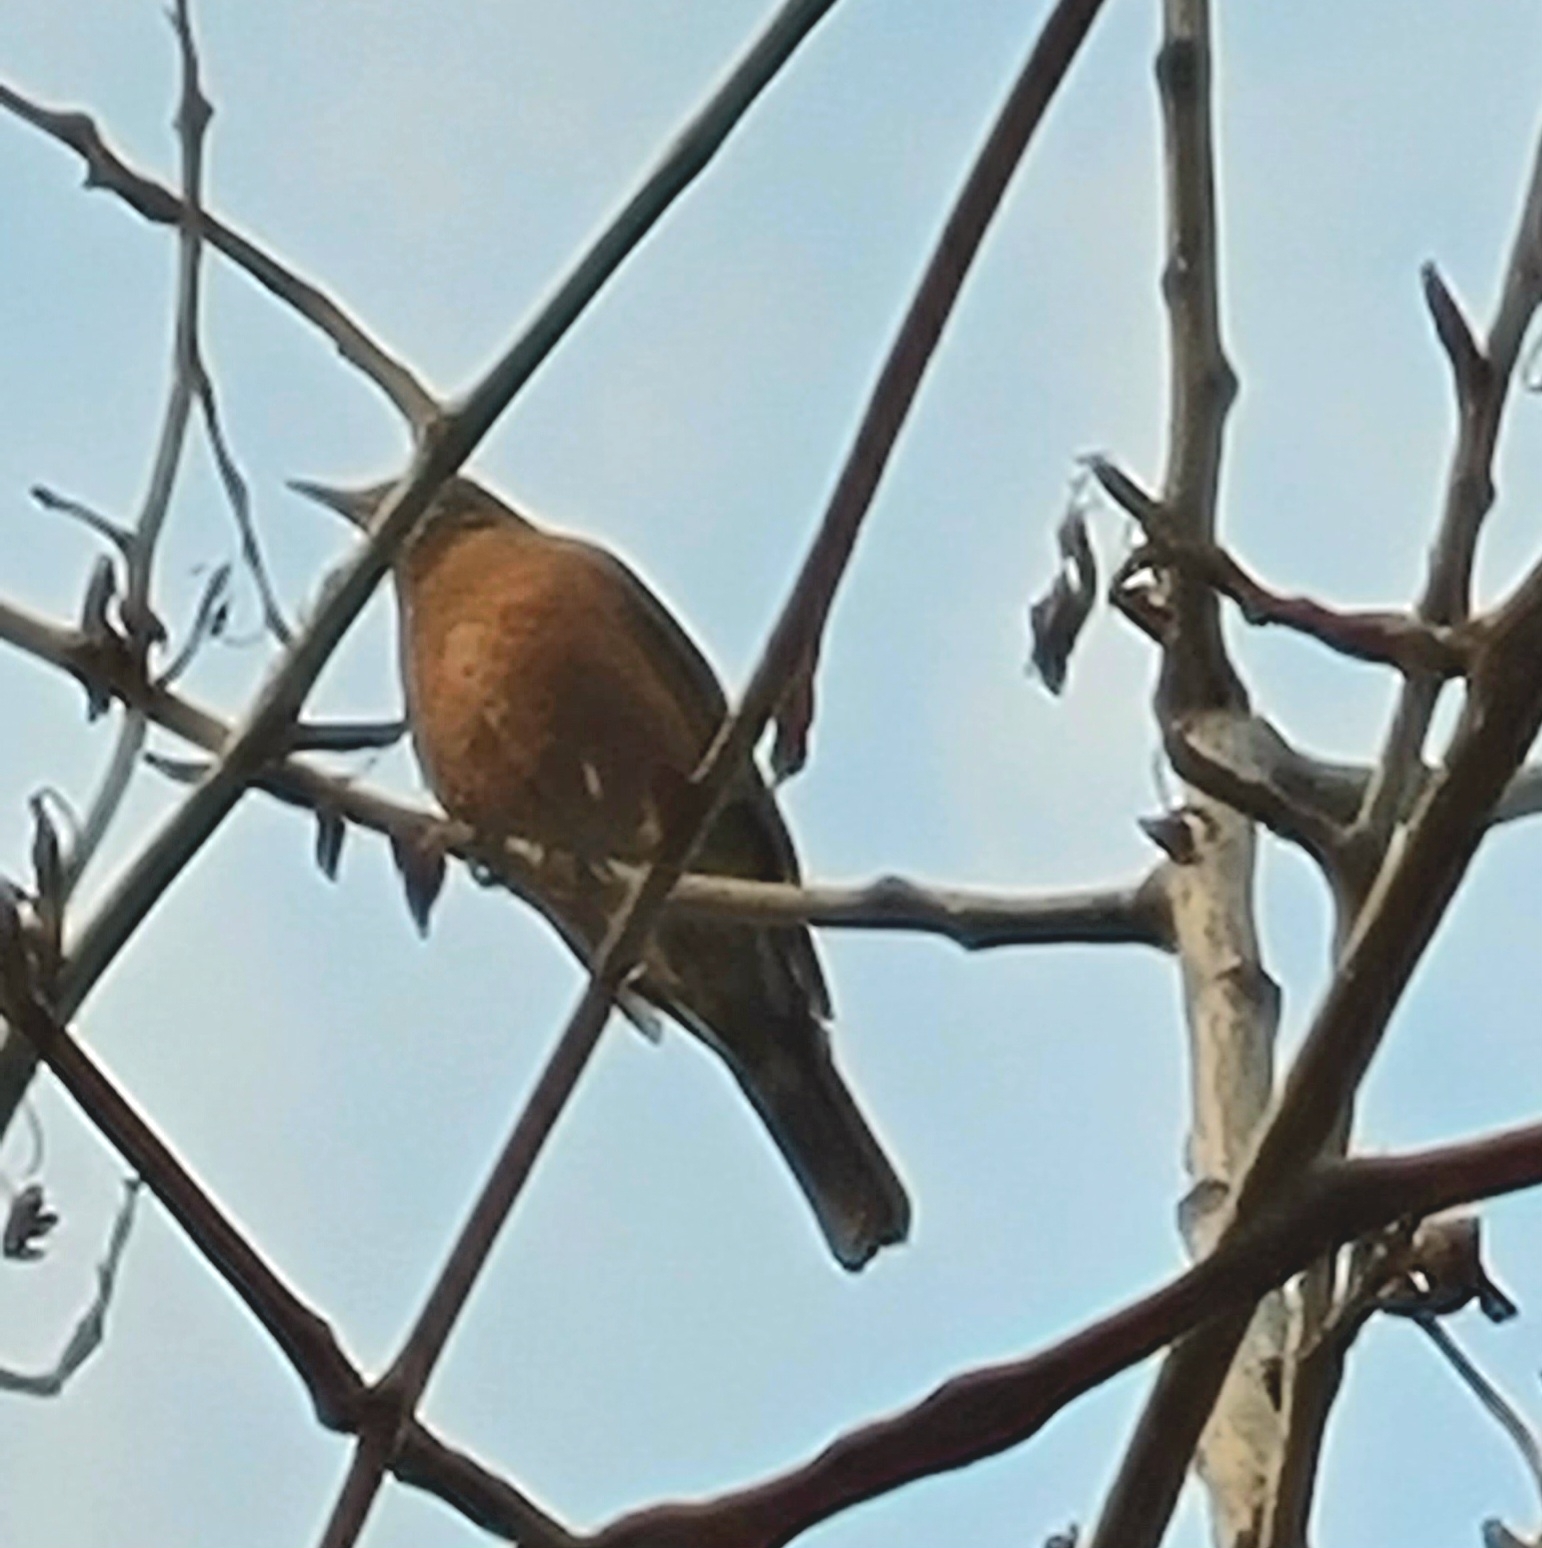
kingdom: Animalia
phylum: Chordata
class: Aves
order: Passeriformes
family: Turdidae
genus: Turdus
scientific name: Turdus migratorius
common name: American robin
